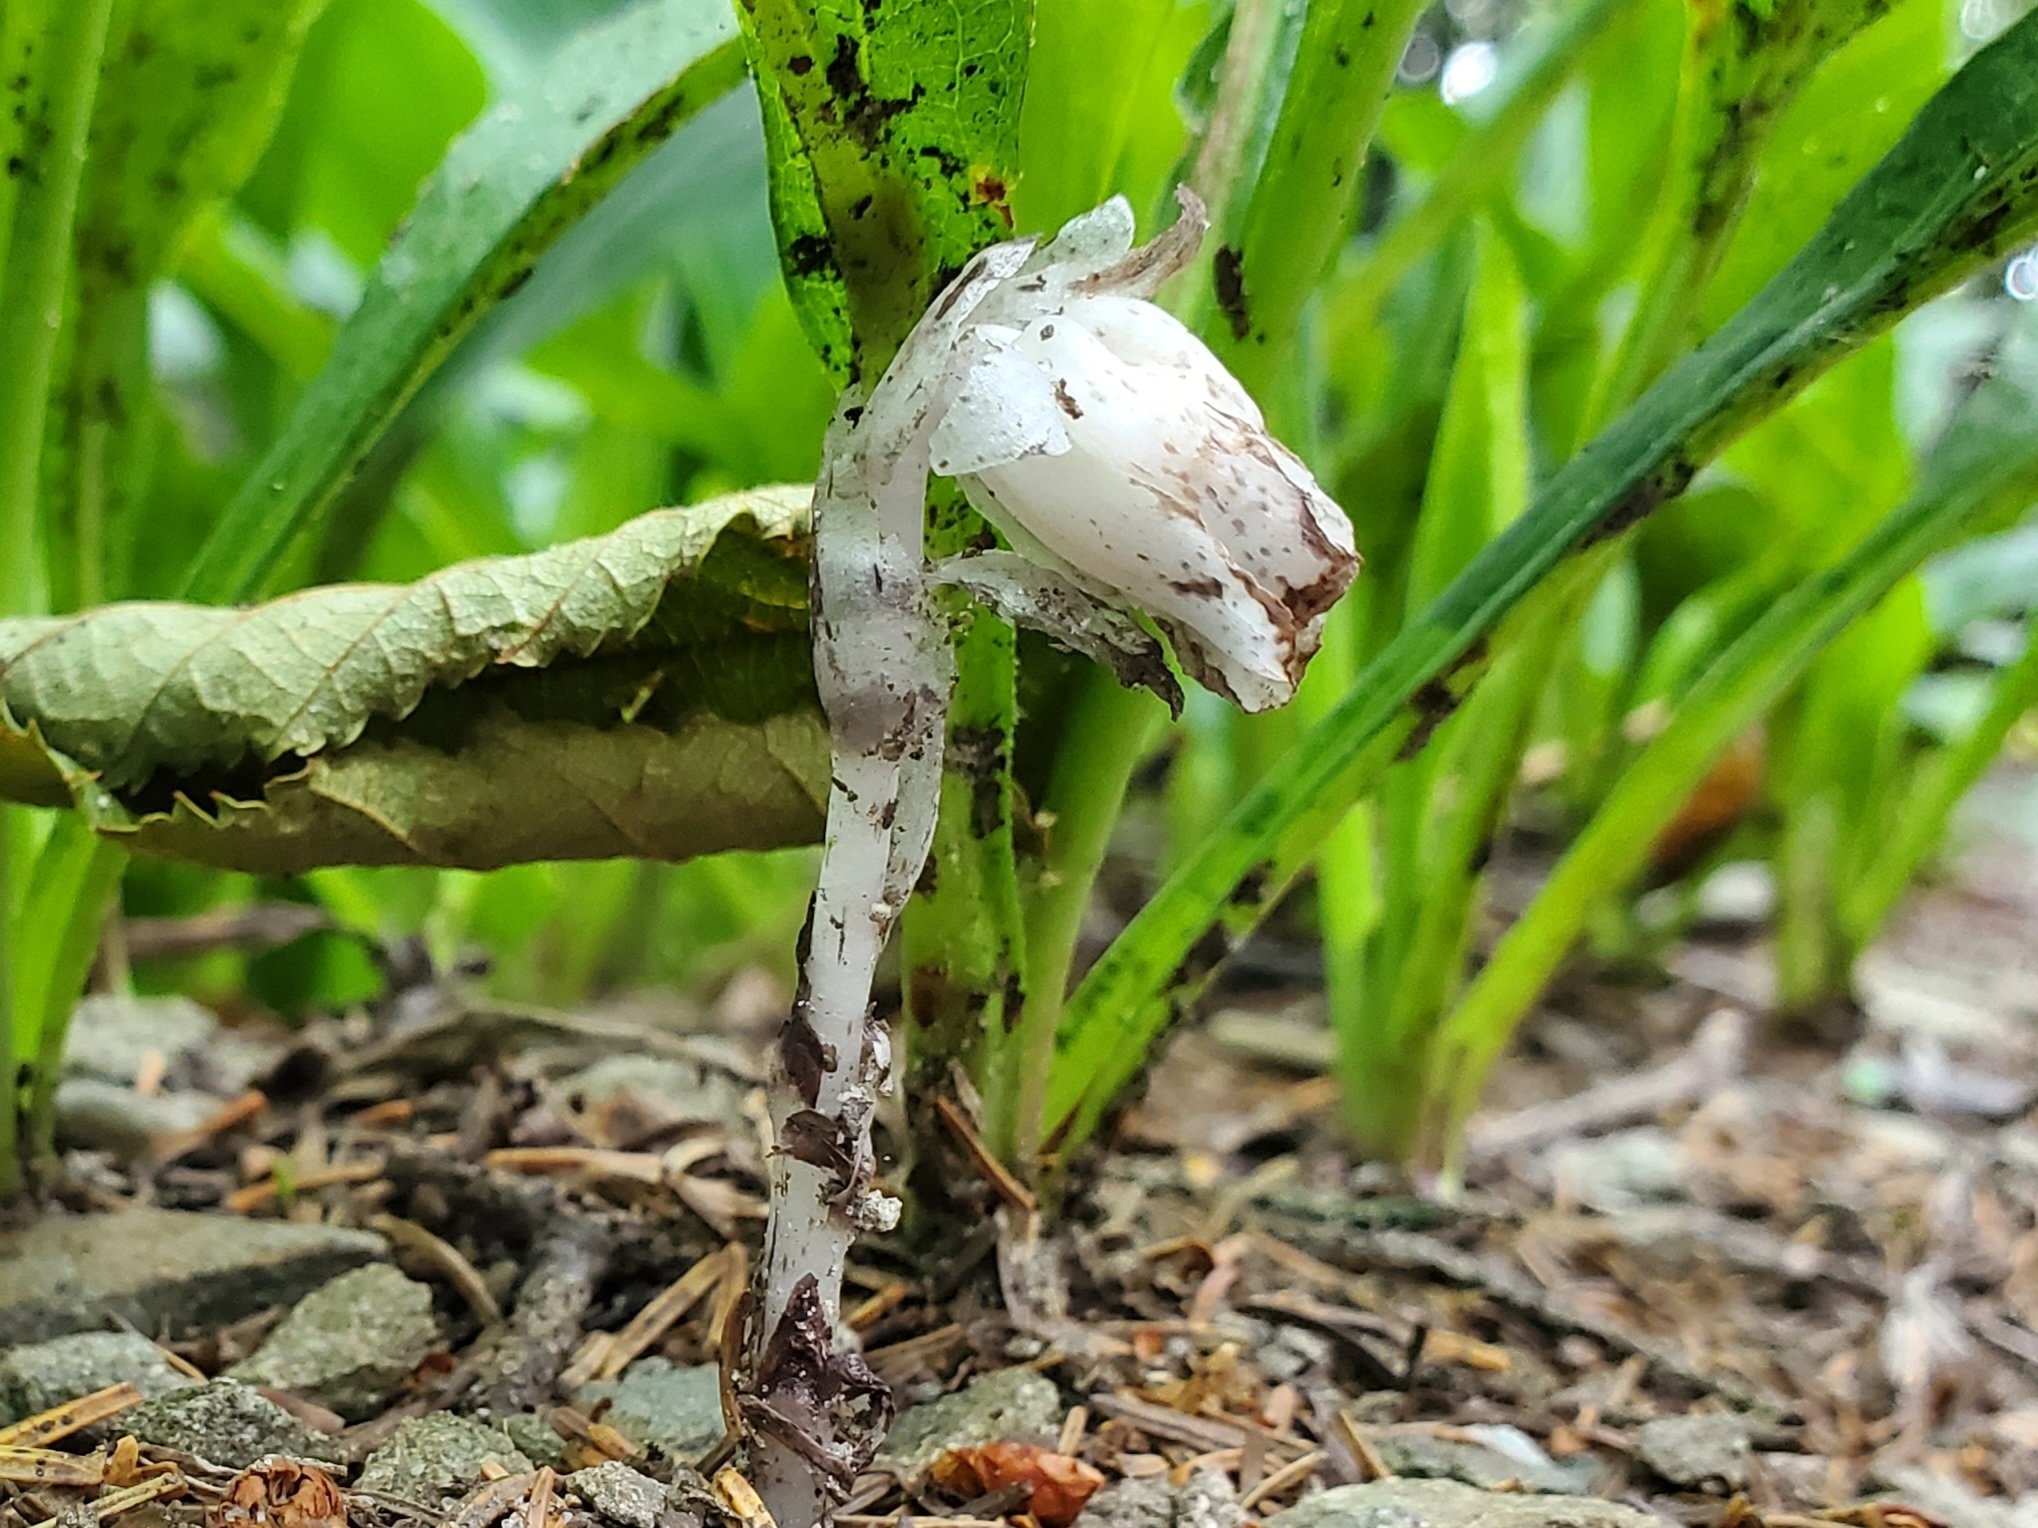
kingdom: Plantae
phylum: Tracheophyta
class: Magnoliopsida
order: Ericales
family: Ericaceae
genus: Monotropa
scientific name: Monotropa uniflora
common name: Convulsion root
